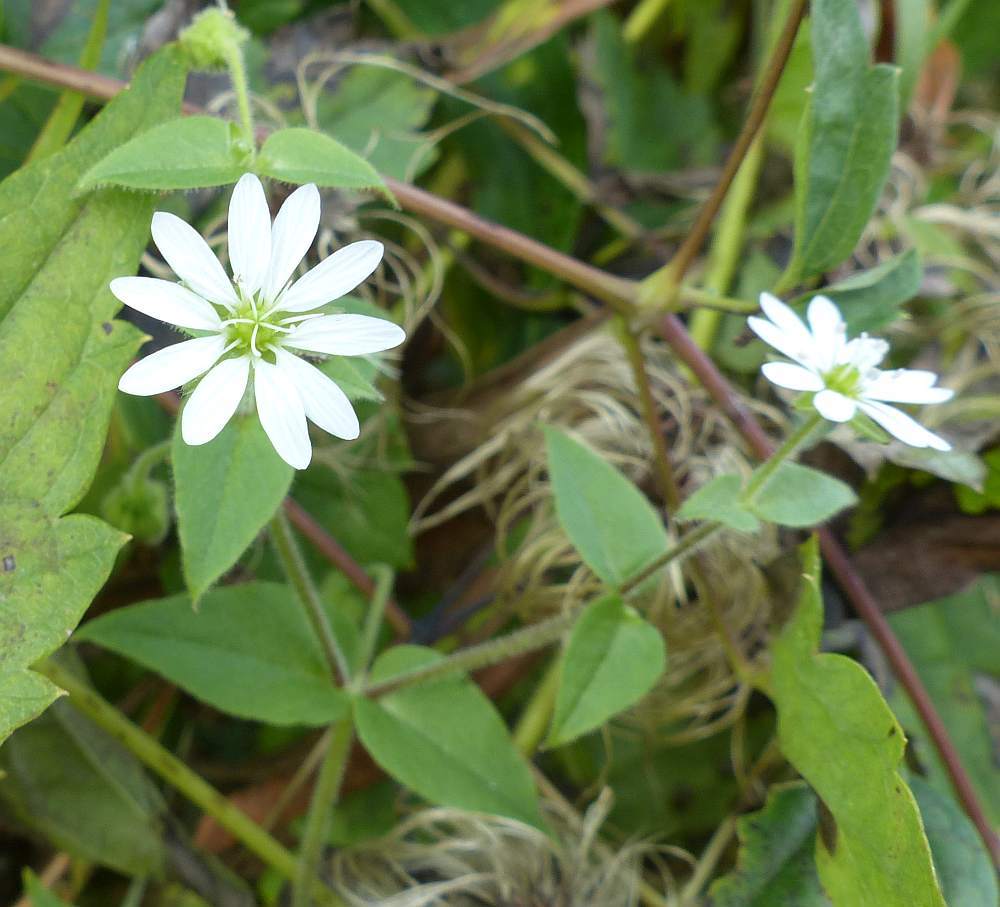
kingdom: Plantae
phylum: Tracheophyta
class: Magnoliopsida
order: Caryophyllales
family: Caryophyllaceae
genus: Stellaria
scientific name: Stellaria media
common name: Common chickweed
